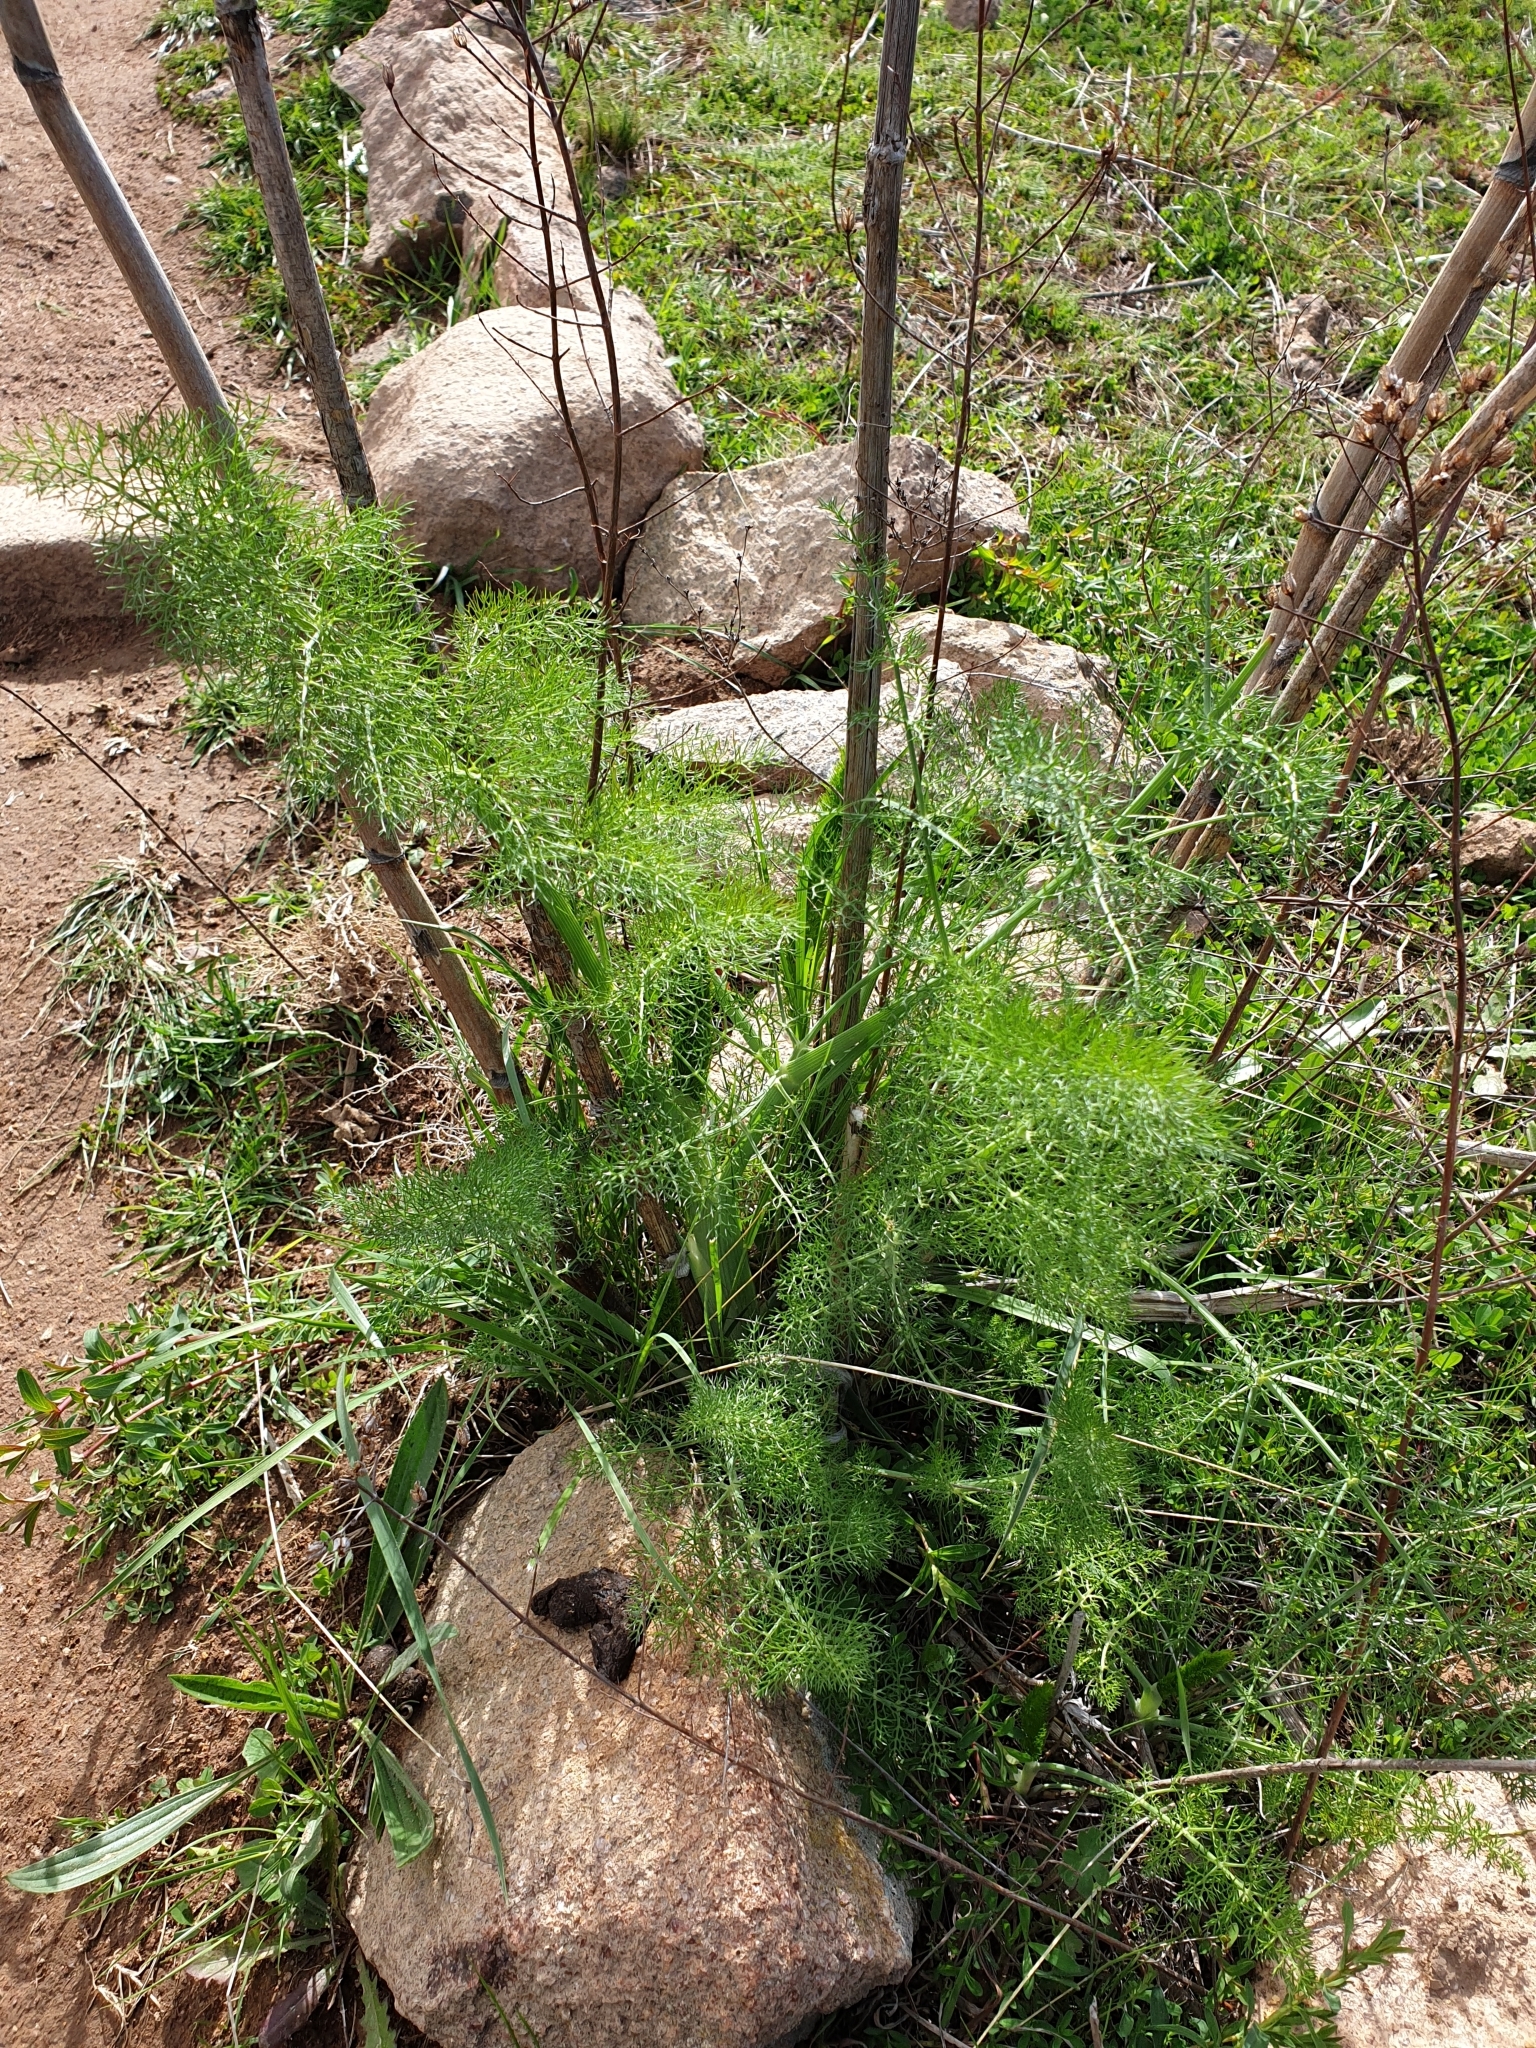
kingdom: Plantae
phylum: Tracheophyta
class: Magnoliopsida
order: Apiales
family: Apiaceae
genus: Foeniculum
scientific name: Foeniculum vulgare
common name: Fennel
